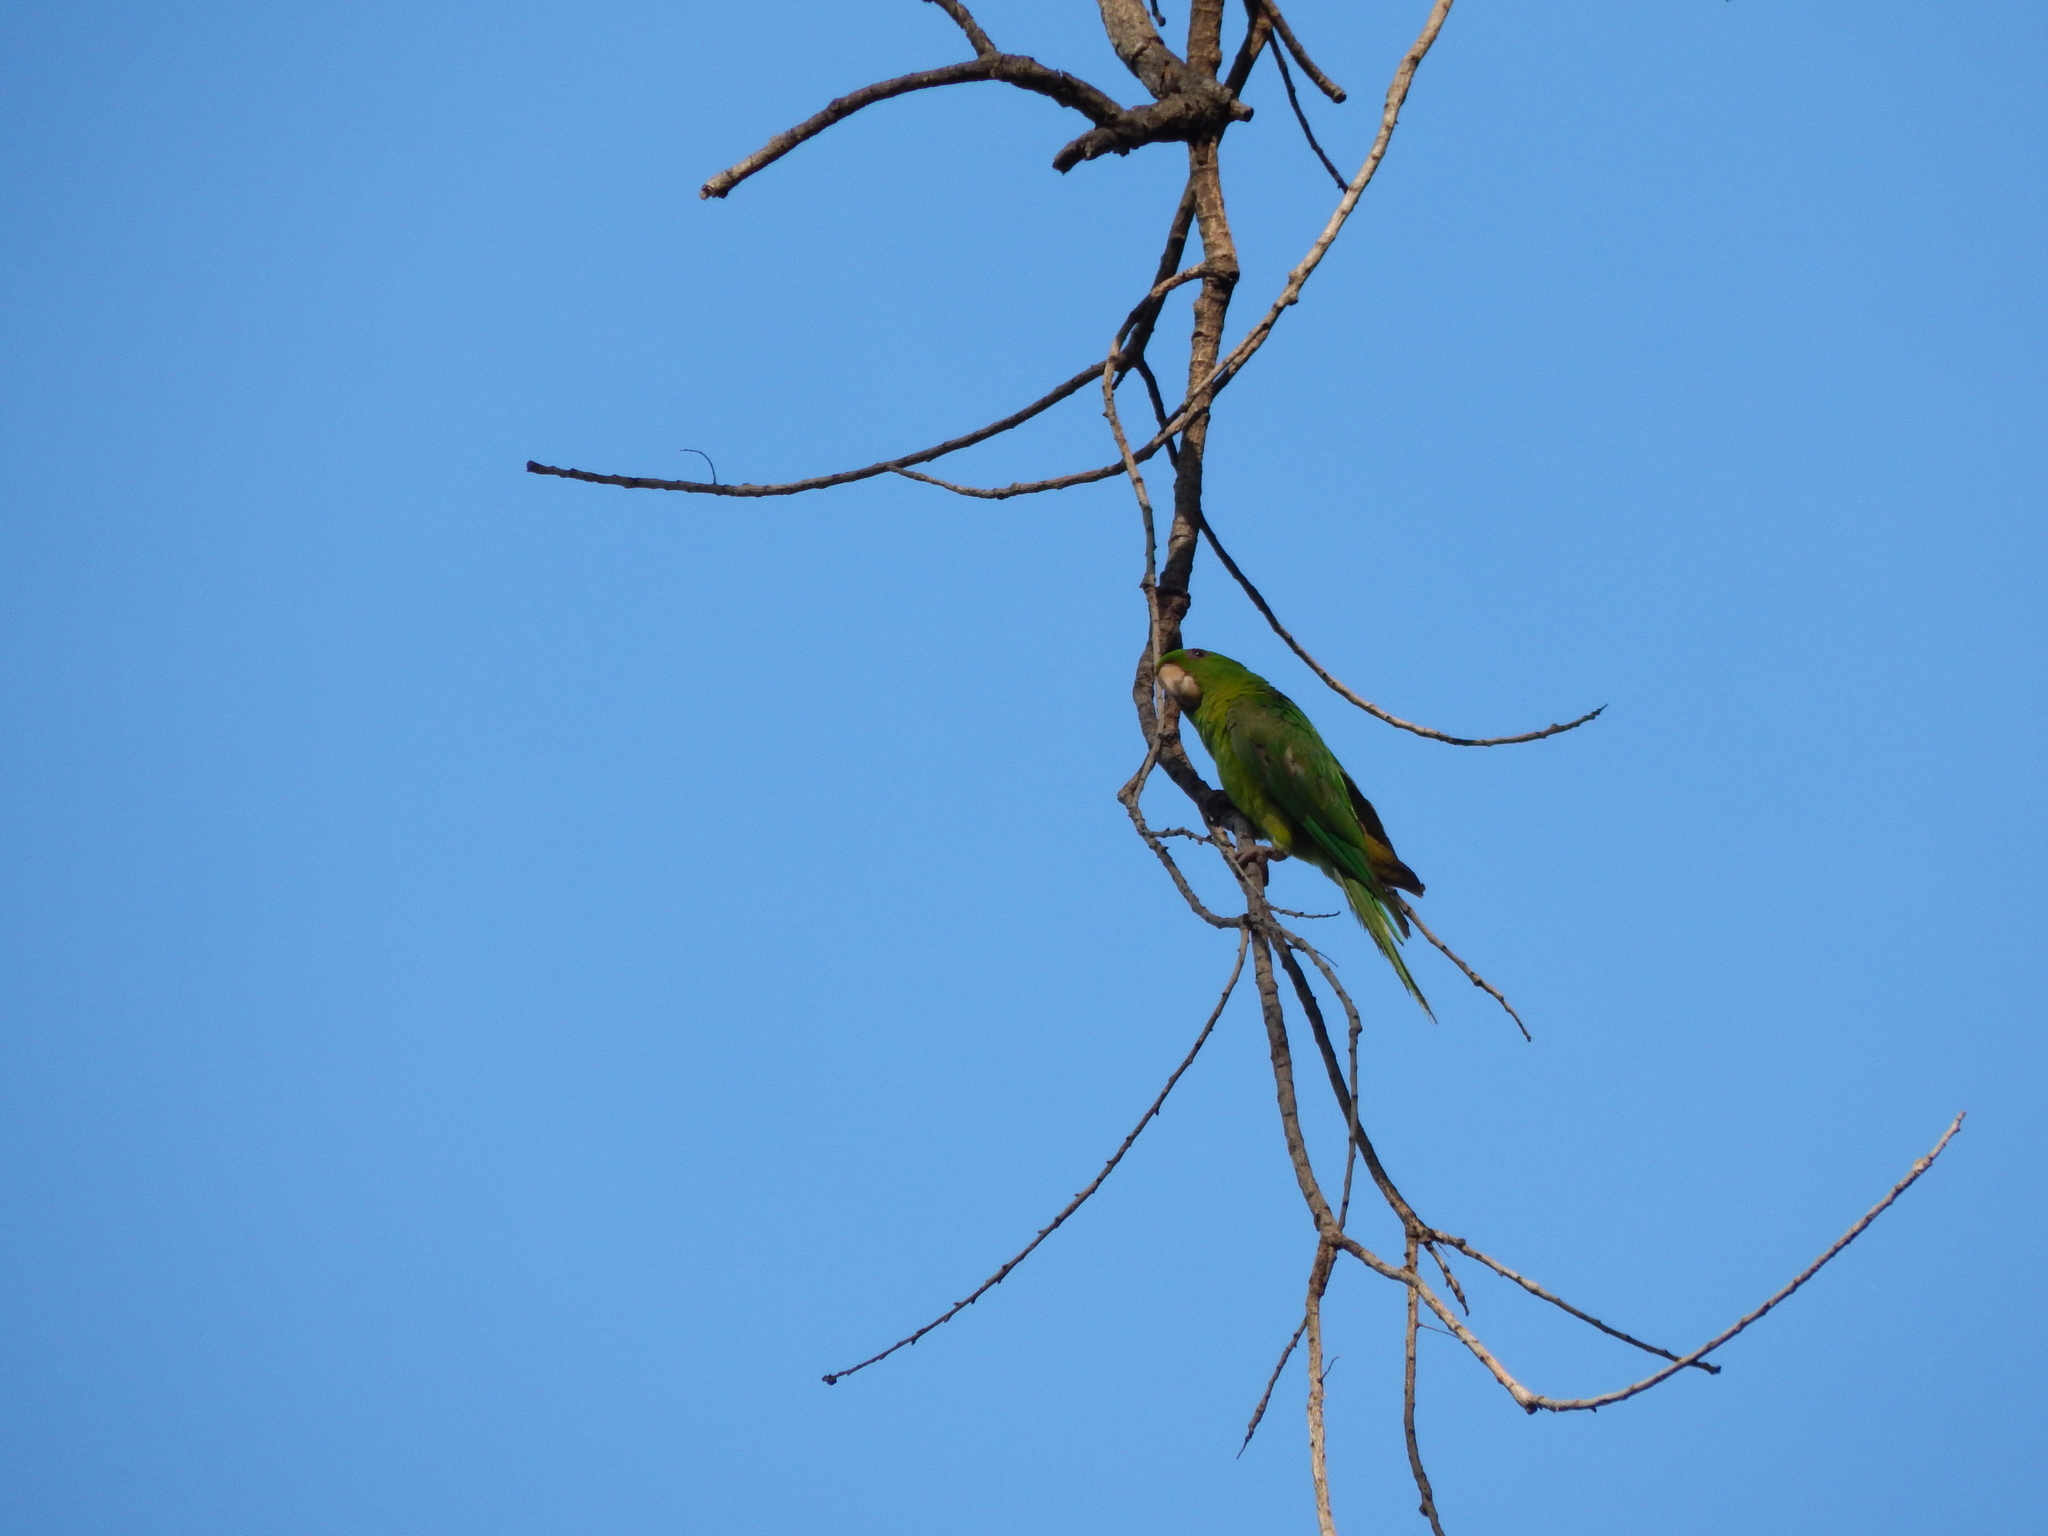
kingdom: Animalia
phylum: Chordata
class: Aves
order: Psittaciformes
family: Psittacidae
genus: Aratinga
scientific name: Aratinga holochlora
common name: Green parakeet
